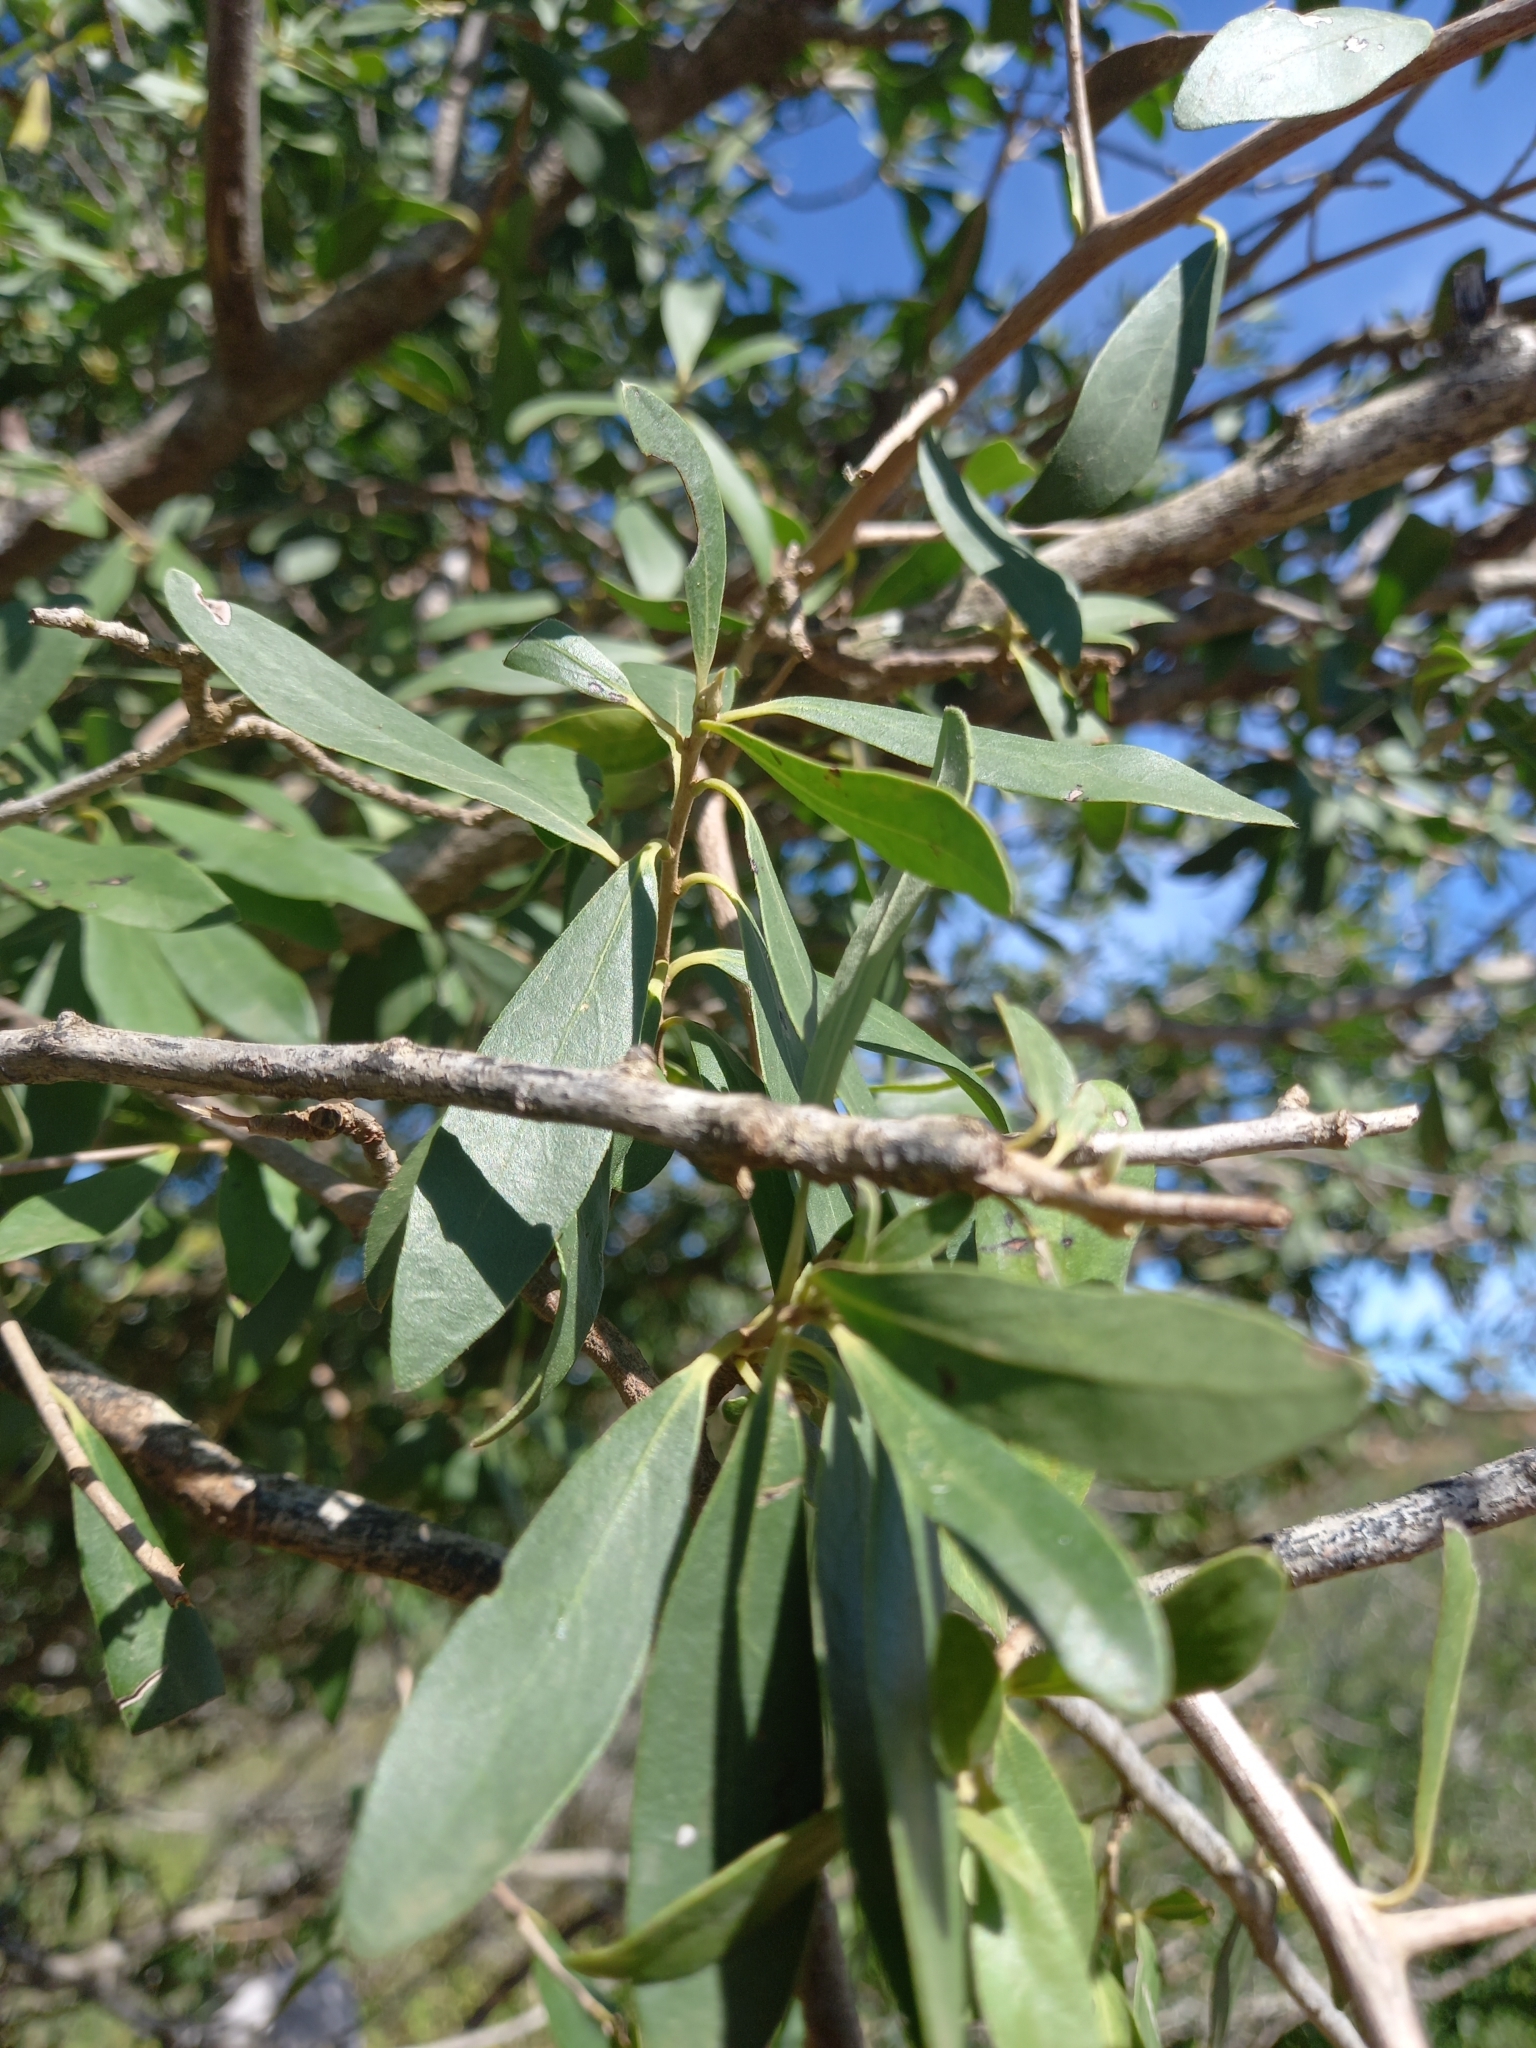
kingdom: Plantae
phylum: Tracheophyta
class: Magnoliopsida
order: Ericales
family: Ebenaceae
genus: Diospyros
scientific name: Diospyros lycioides
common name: Red star apple
